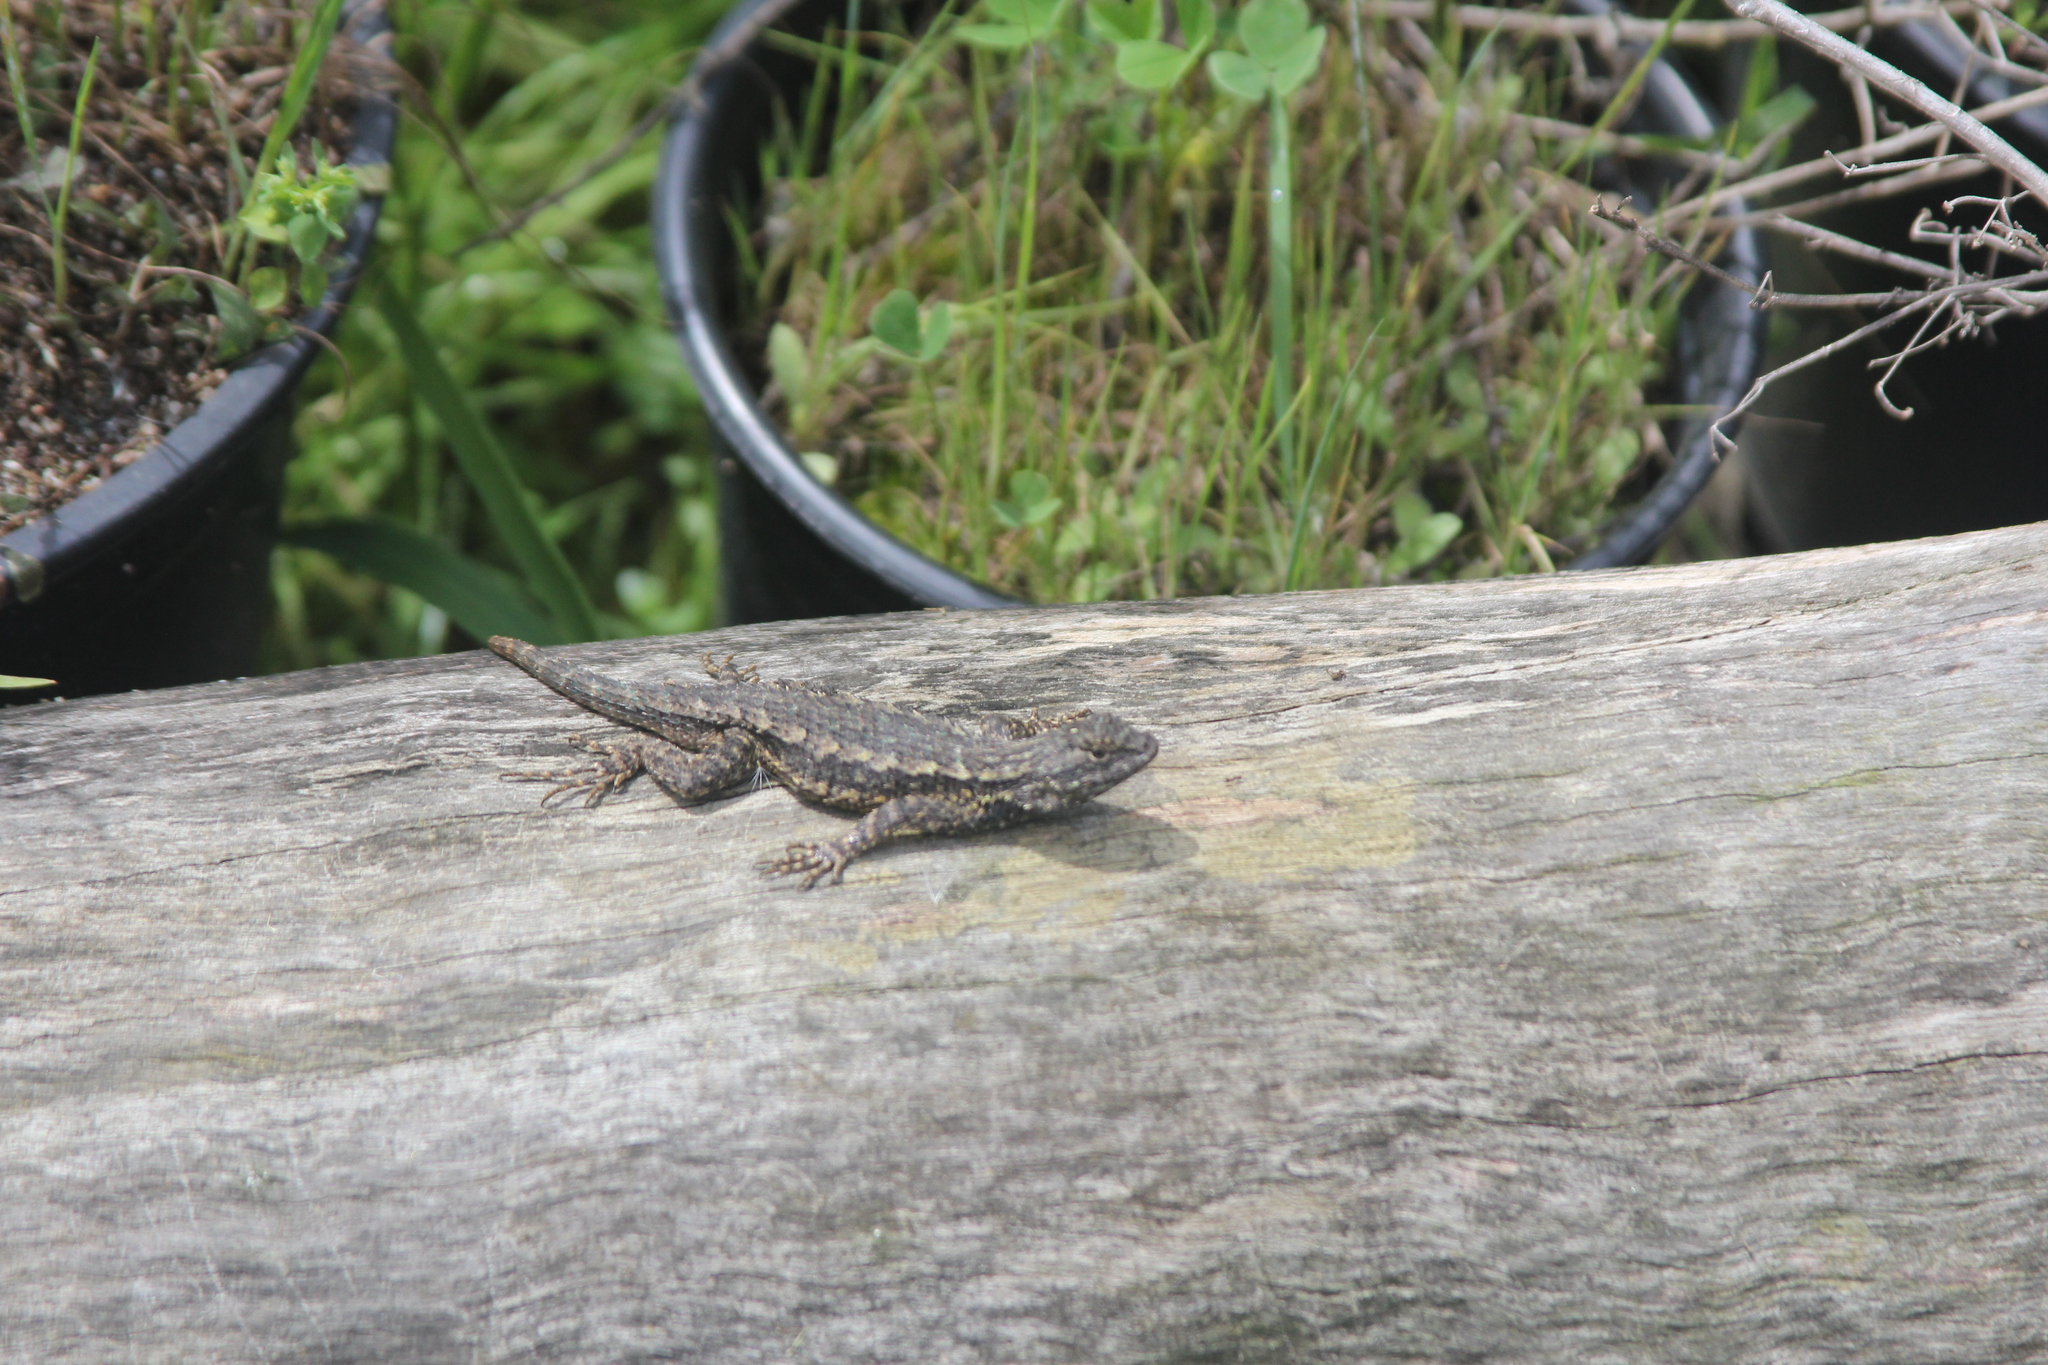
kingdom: Animalia
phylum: Chordata
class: Squamata
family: Phrynosomatidae
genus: Sceloporus
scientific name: Sceloporus occidentalis
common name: Western fence lizard
